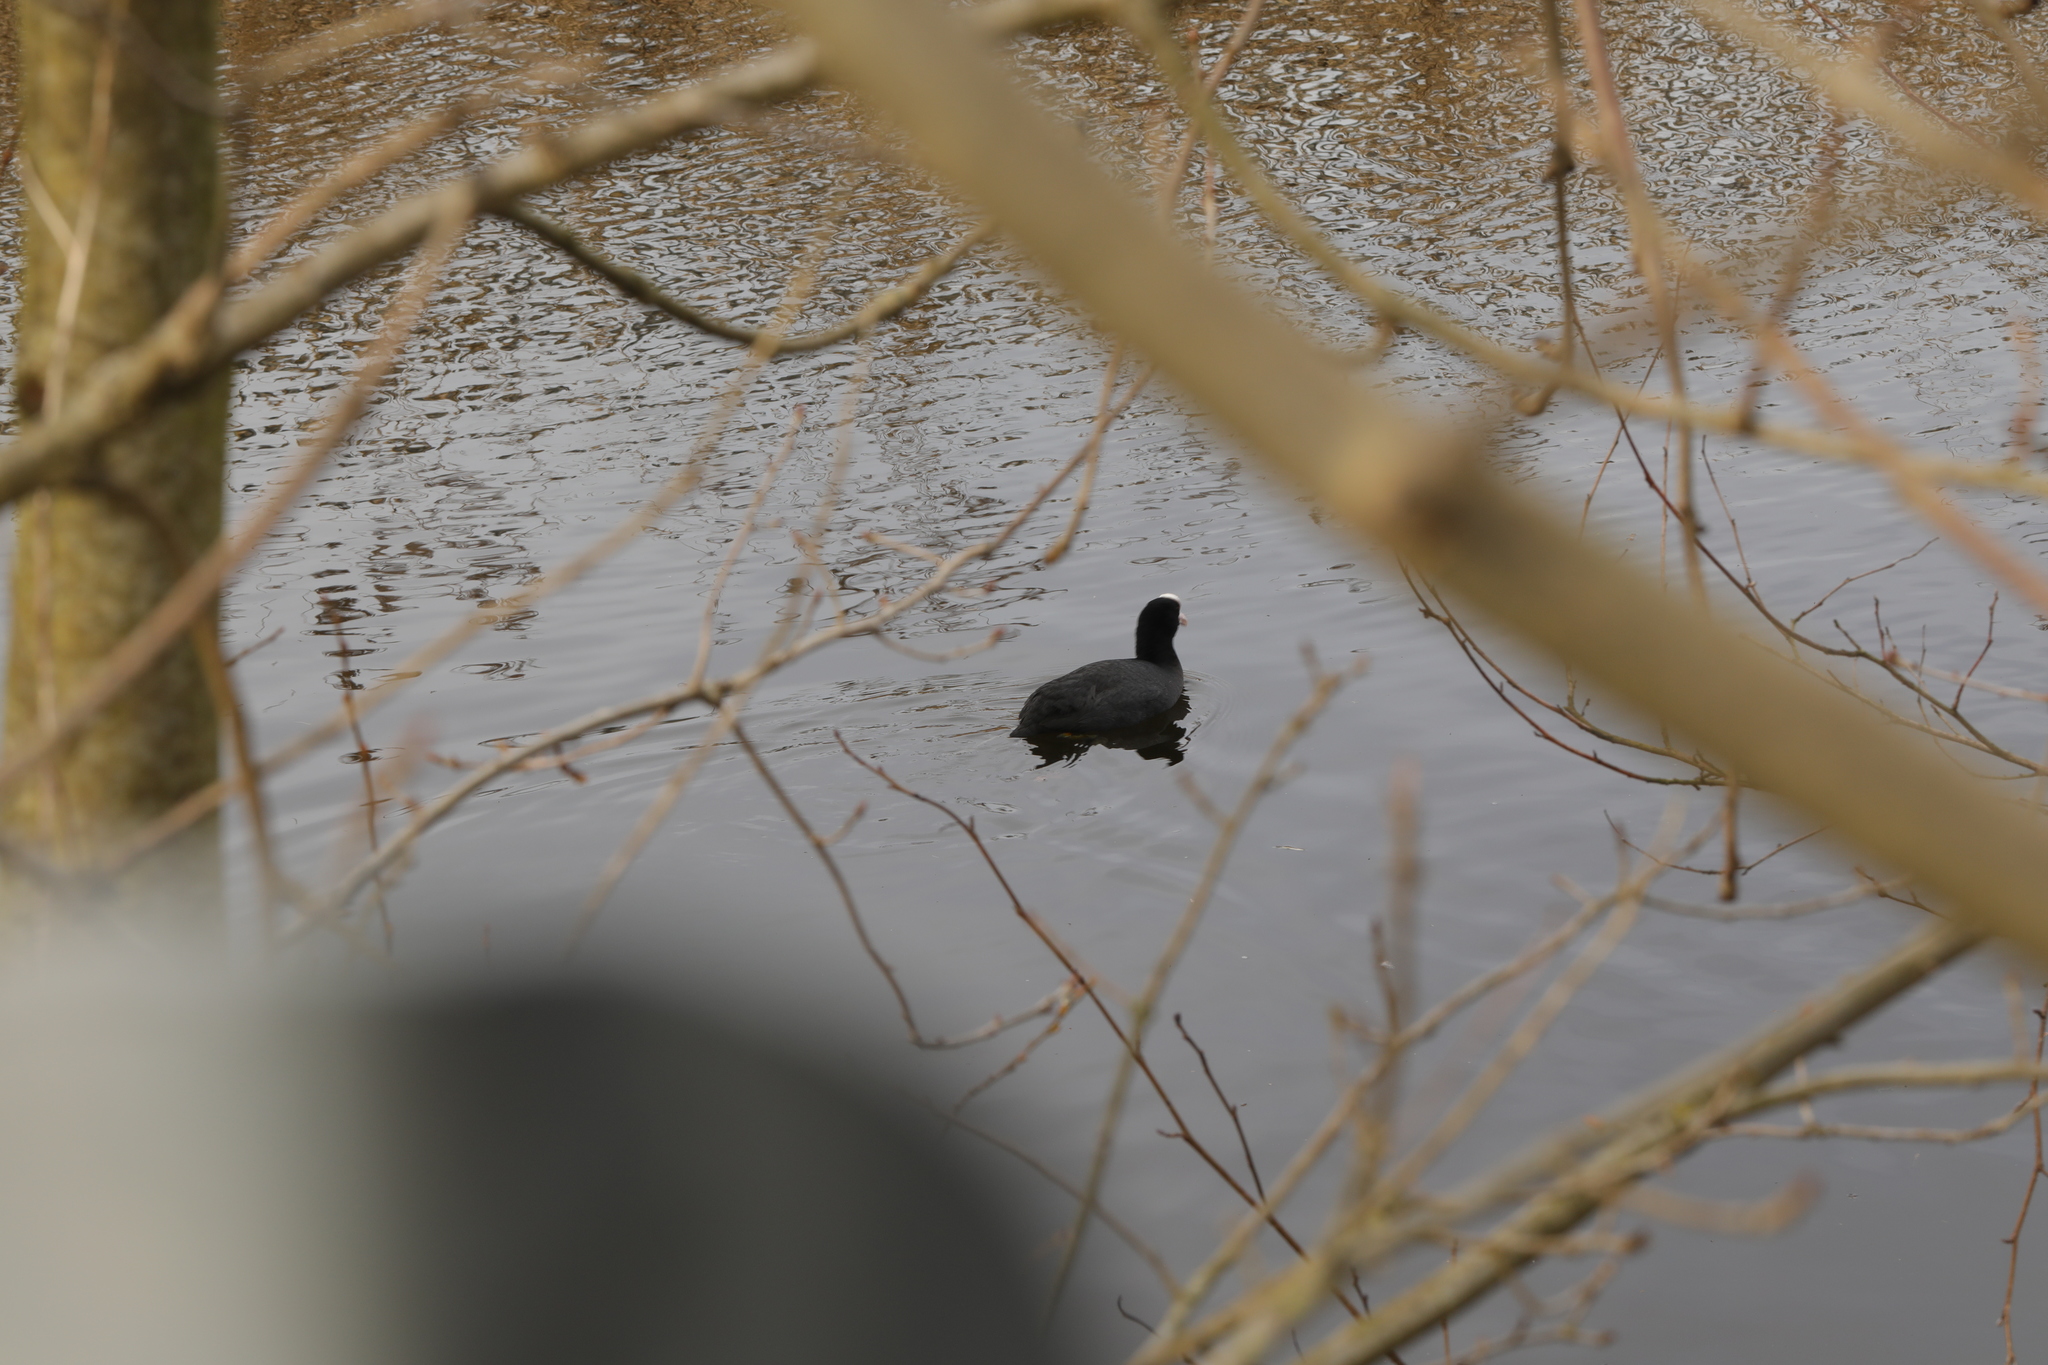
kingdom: Animalia
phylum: Chordata
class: Aves
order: Gruiformes
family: Rallidae
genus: Fulica
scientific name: Fulica atra
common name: Eurasian coot
